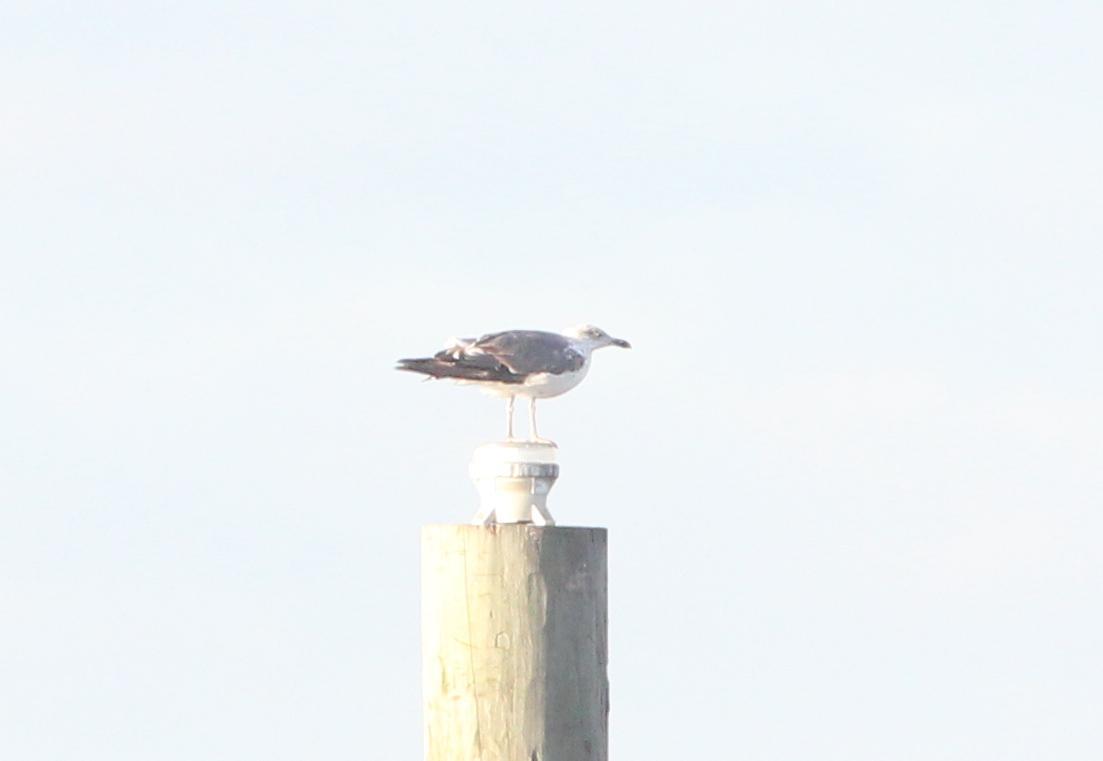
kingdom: Animalia
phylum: Chordata
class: Aves
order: Charadriiformes
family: Laridae
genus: Larus
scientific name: Larus fuscus
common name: Lesser black-backed gull
